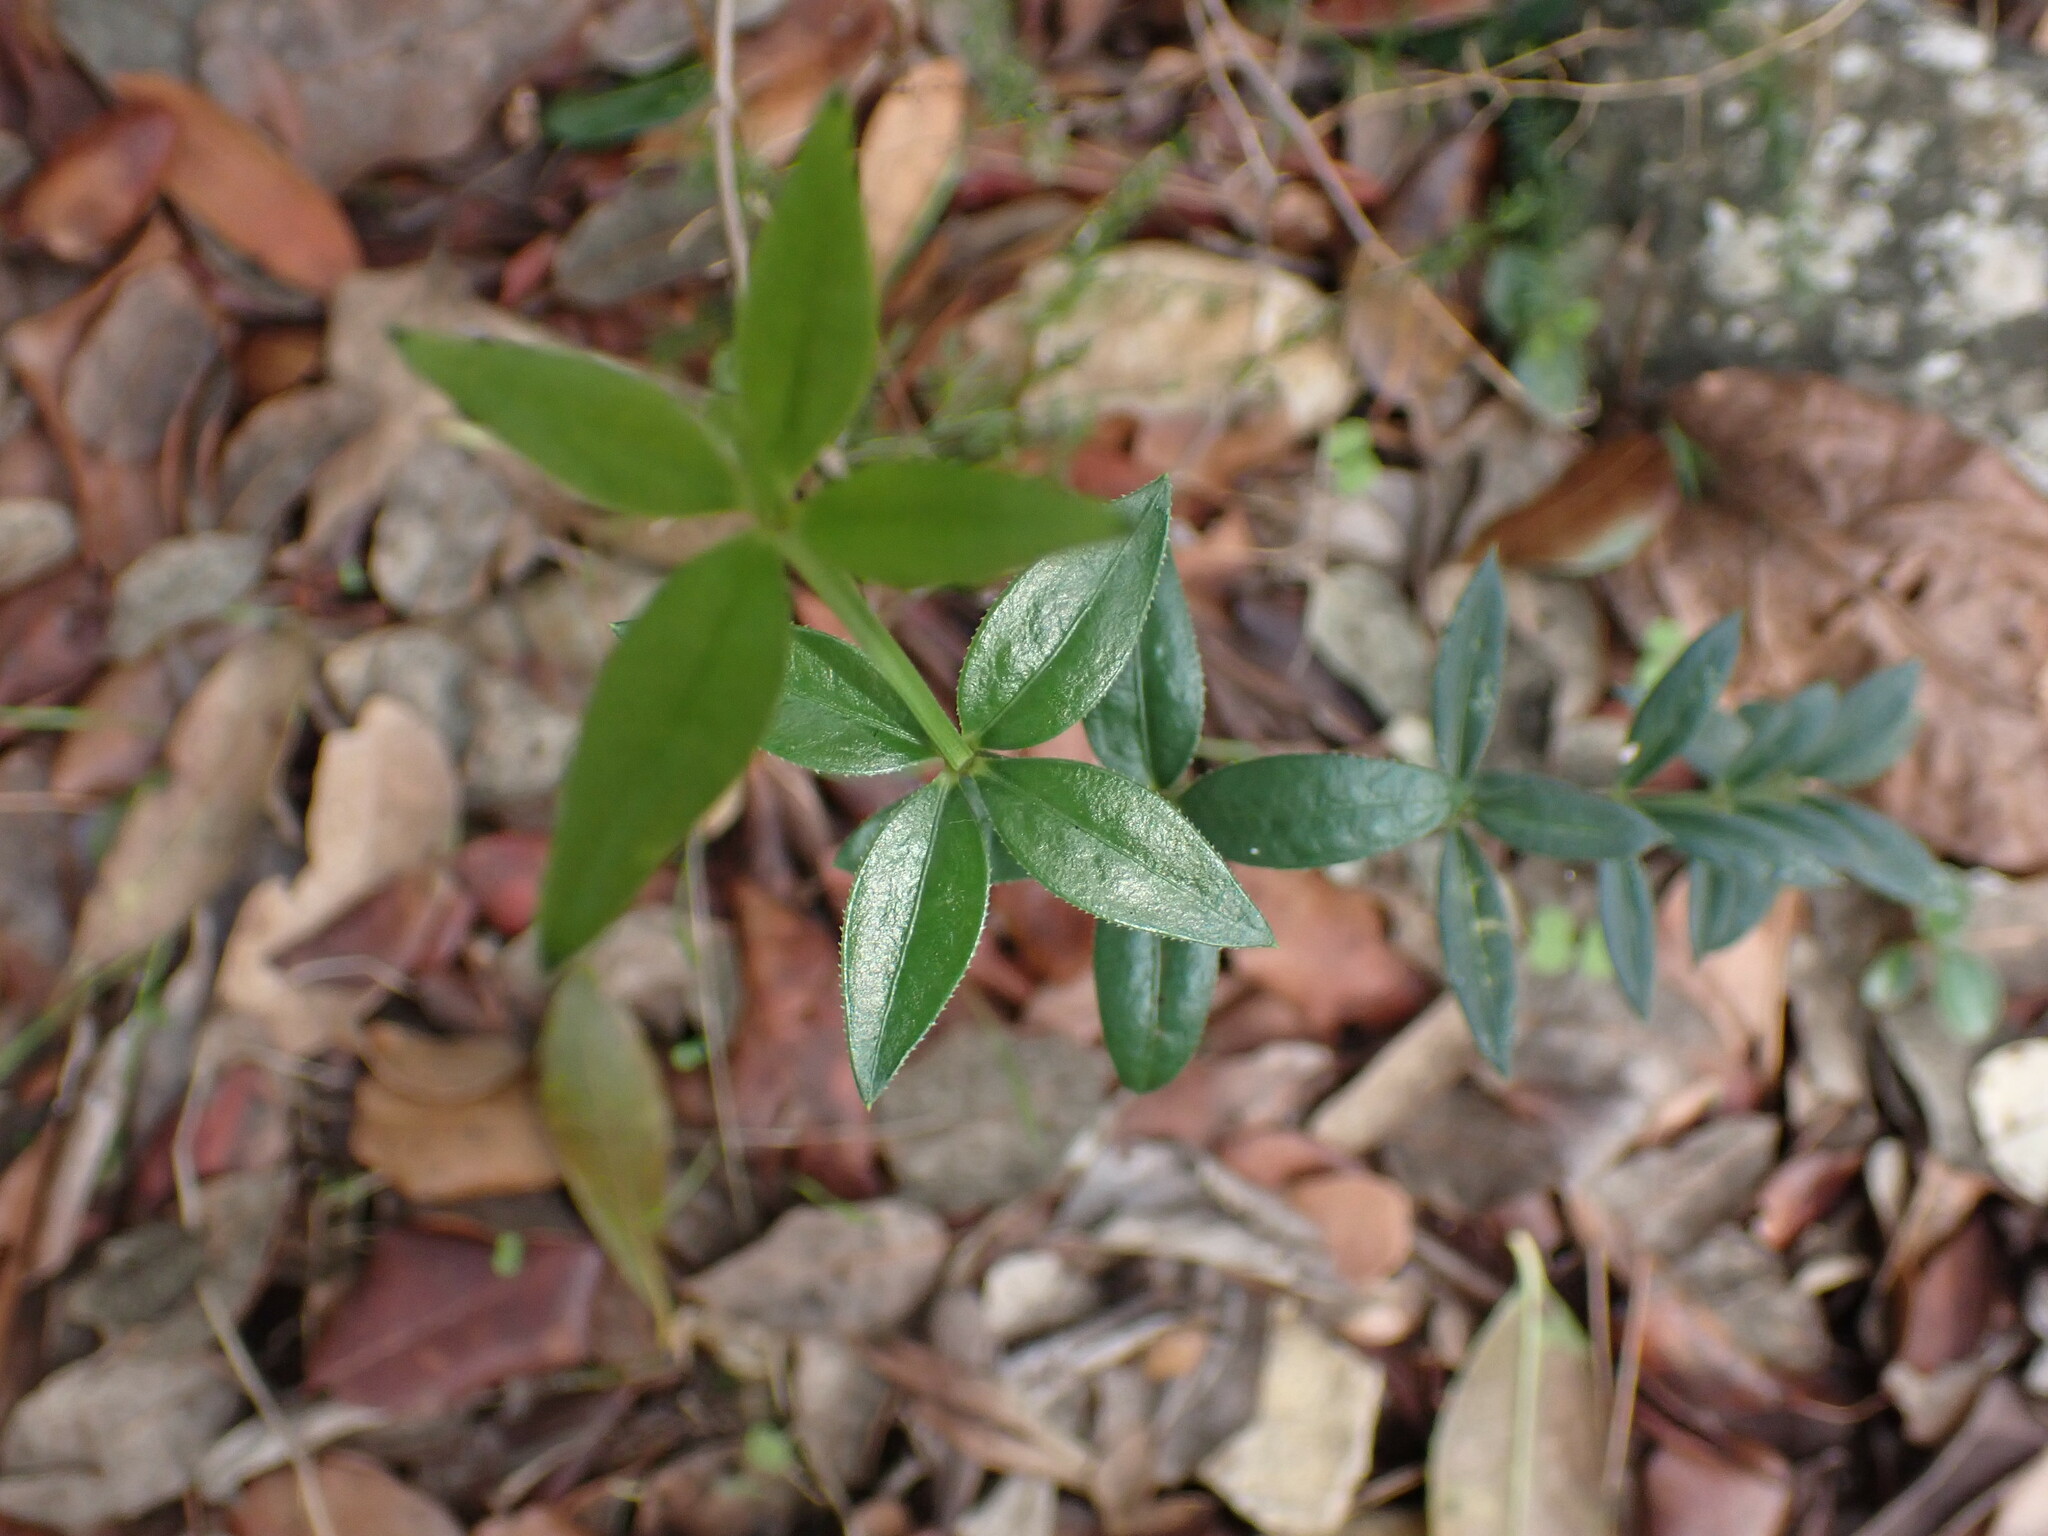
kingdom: Plantae
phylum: Tracheophyta
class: Magnoliopsida
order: Gentianales
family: Rubiaceae
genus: Rubia
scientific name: Rubia peregrina
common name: Wild madder
